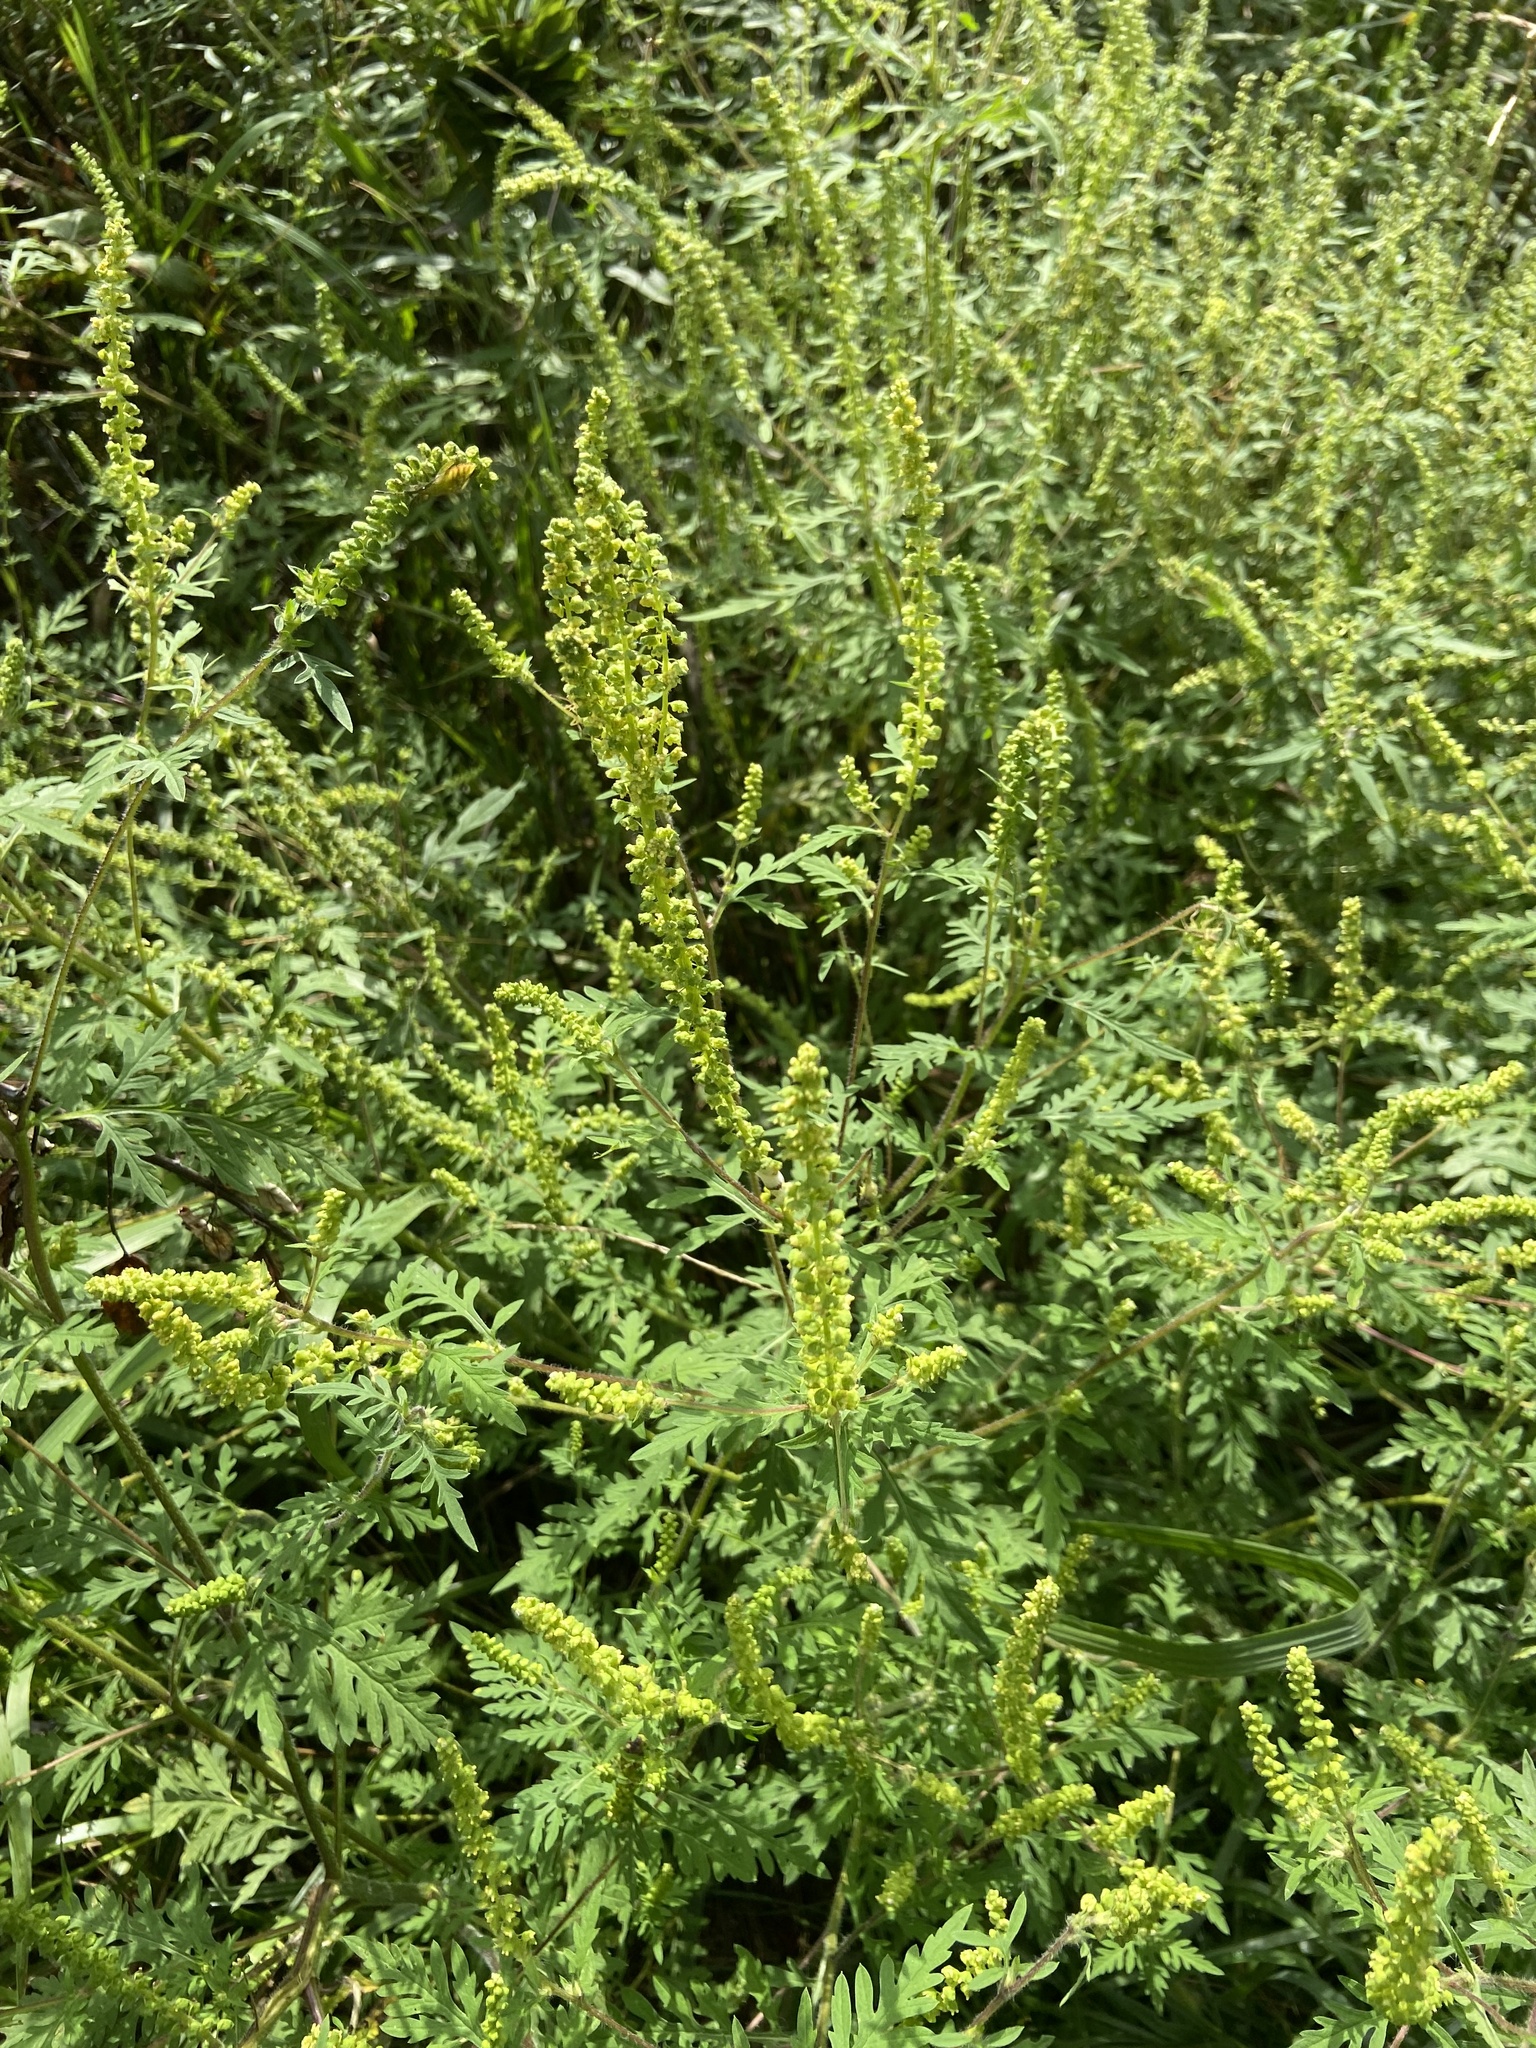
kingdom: Plantae
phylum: Tracheophyta
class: Magnoliopsida
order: Asterales
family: Asteraceae
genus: Ambrosia
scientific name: Ambrosia artemisiifolia
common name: Annual ragweed
